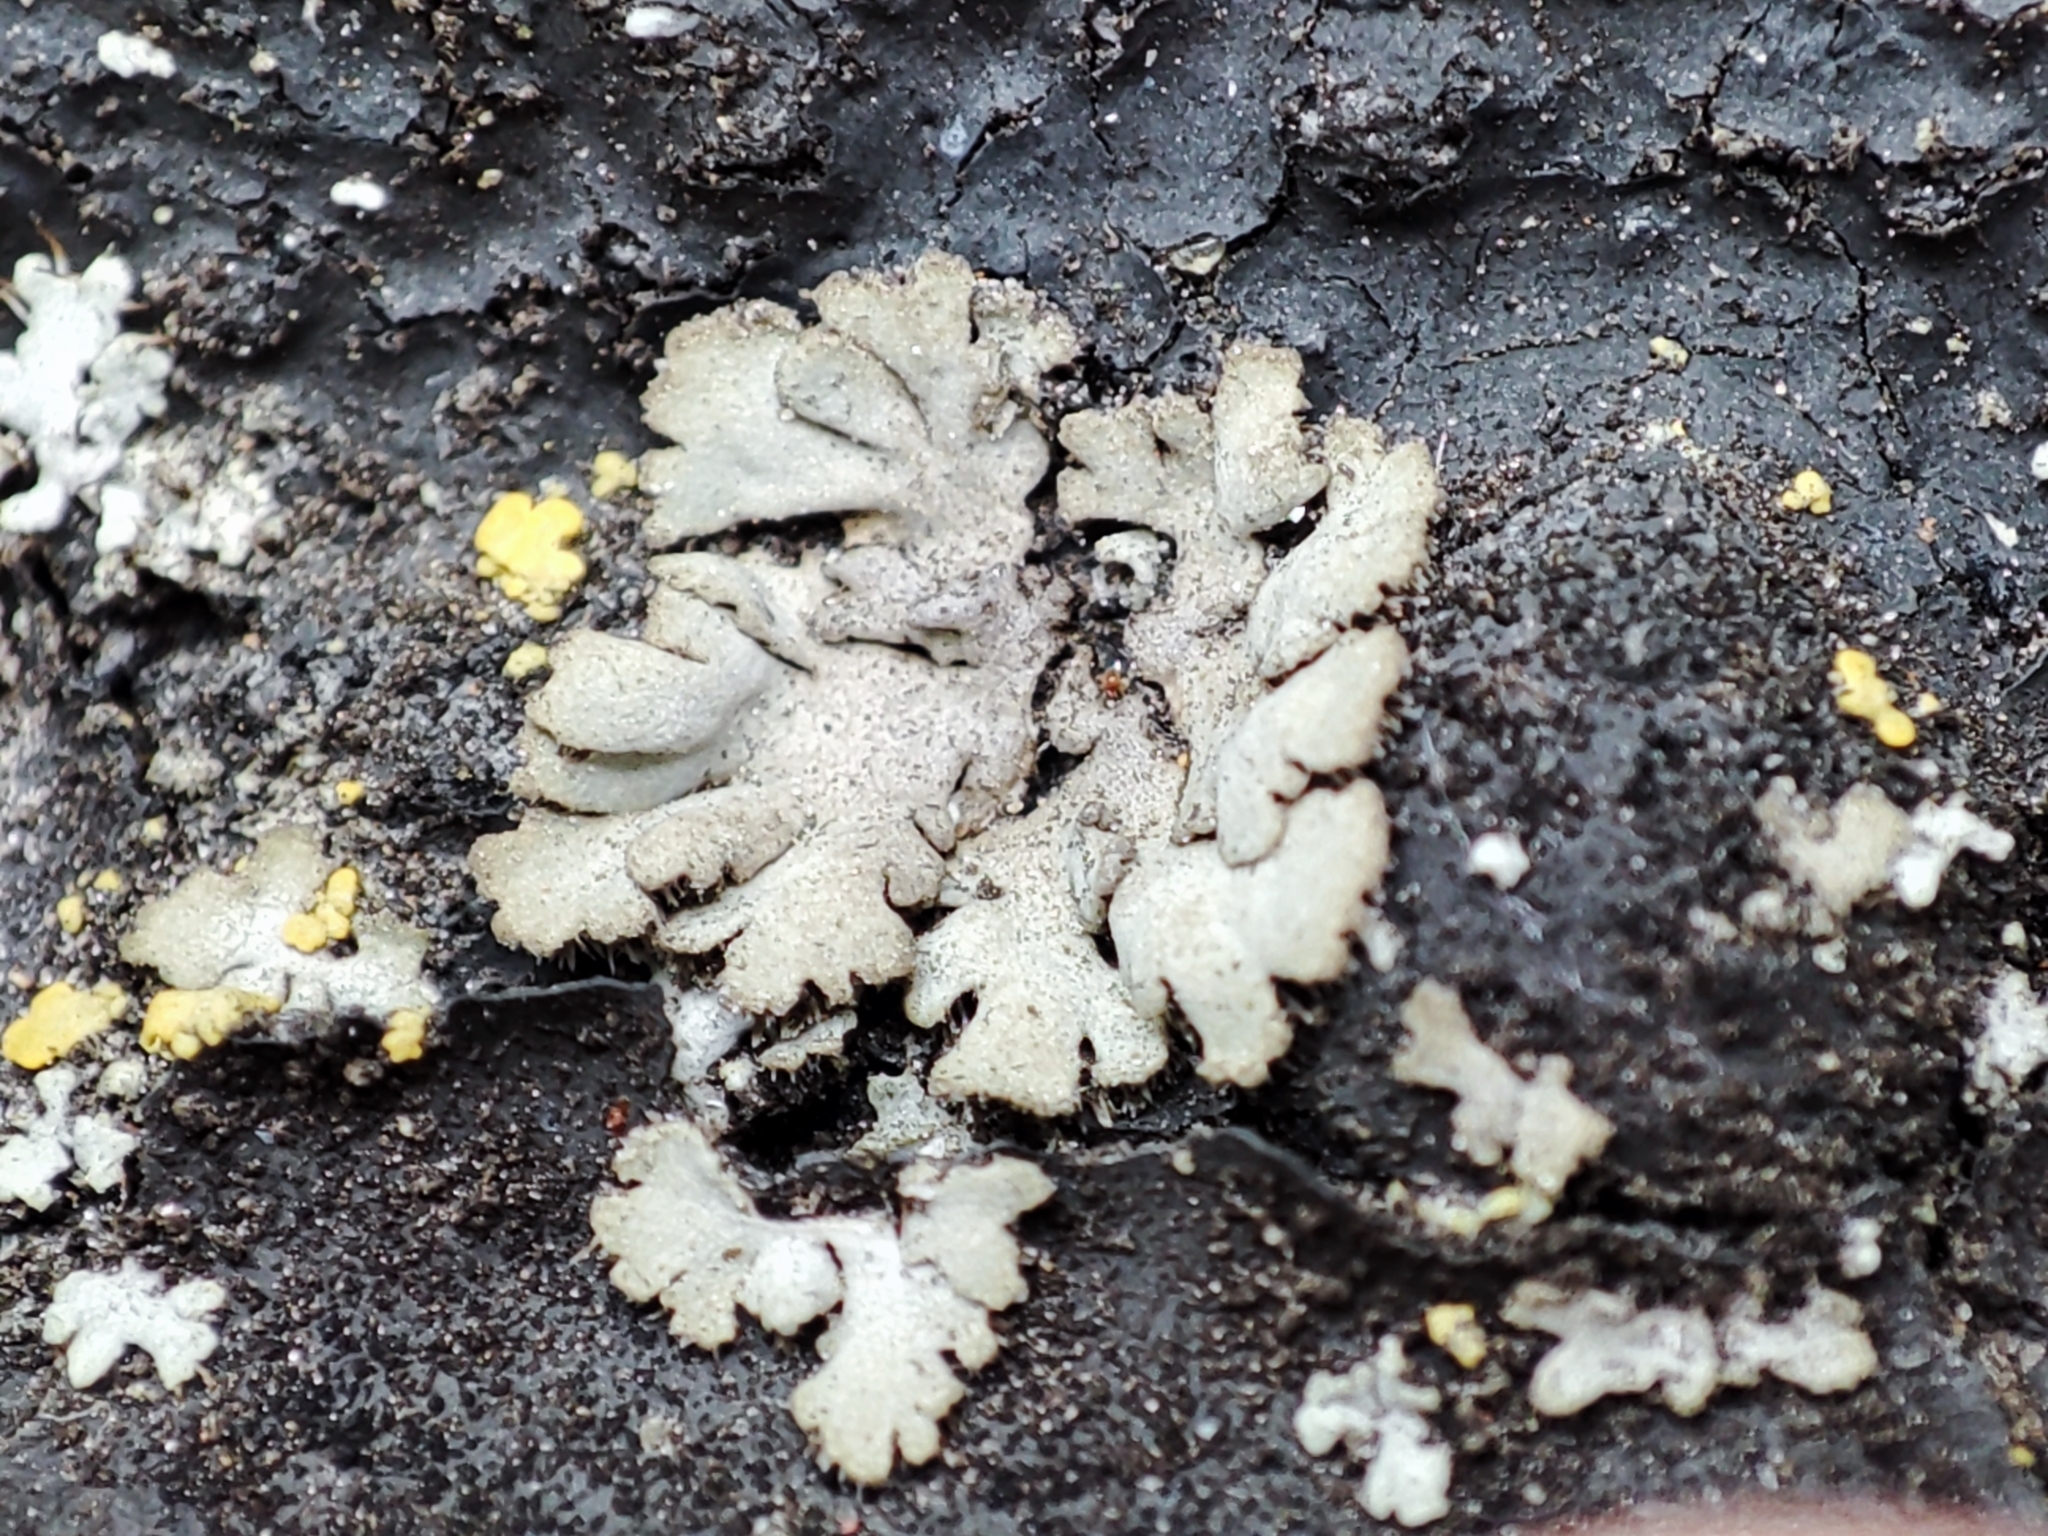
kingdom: Fungi
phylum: Ascomycota
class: Lecanoromycetes
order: Caliciales
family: Physciaceae
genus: Phaeophyscia
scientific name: Phaeophyscia orbicularis
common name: Mealy shadow lichen
